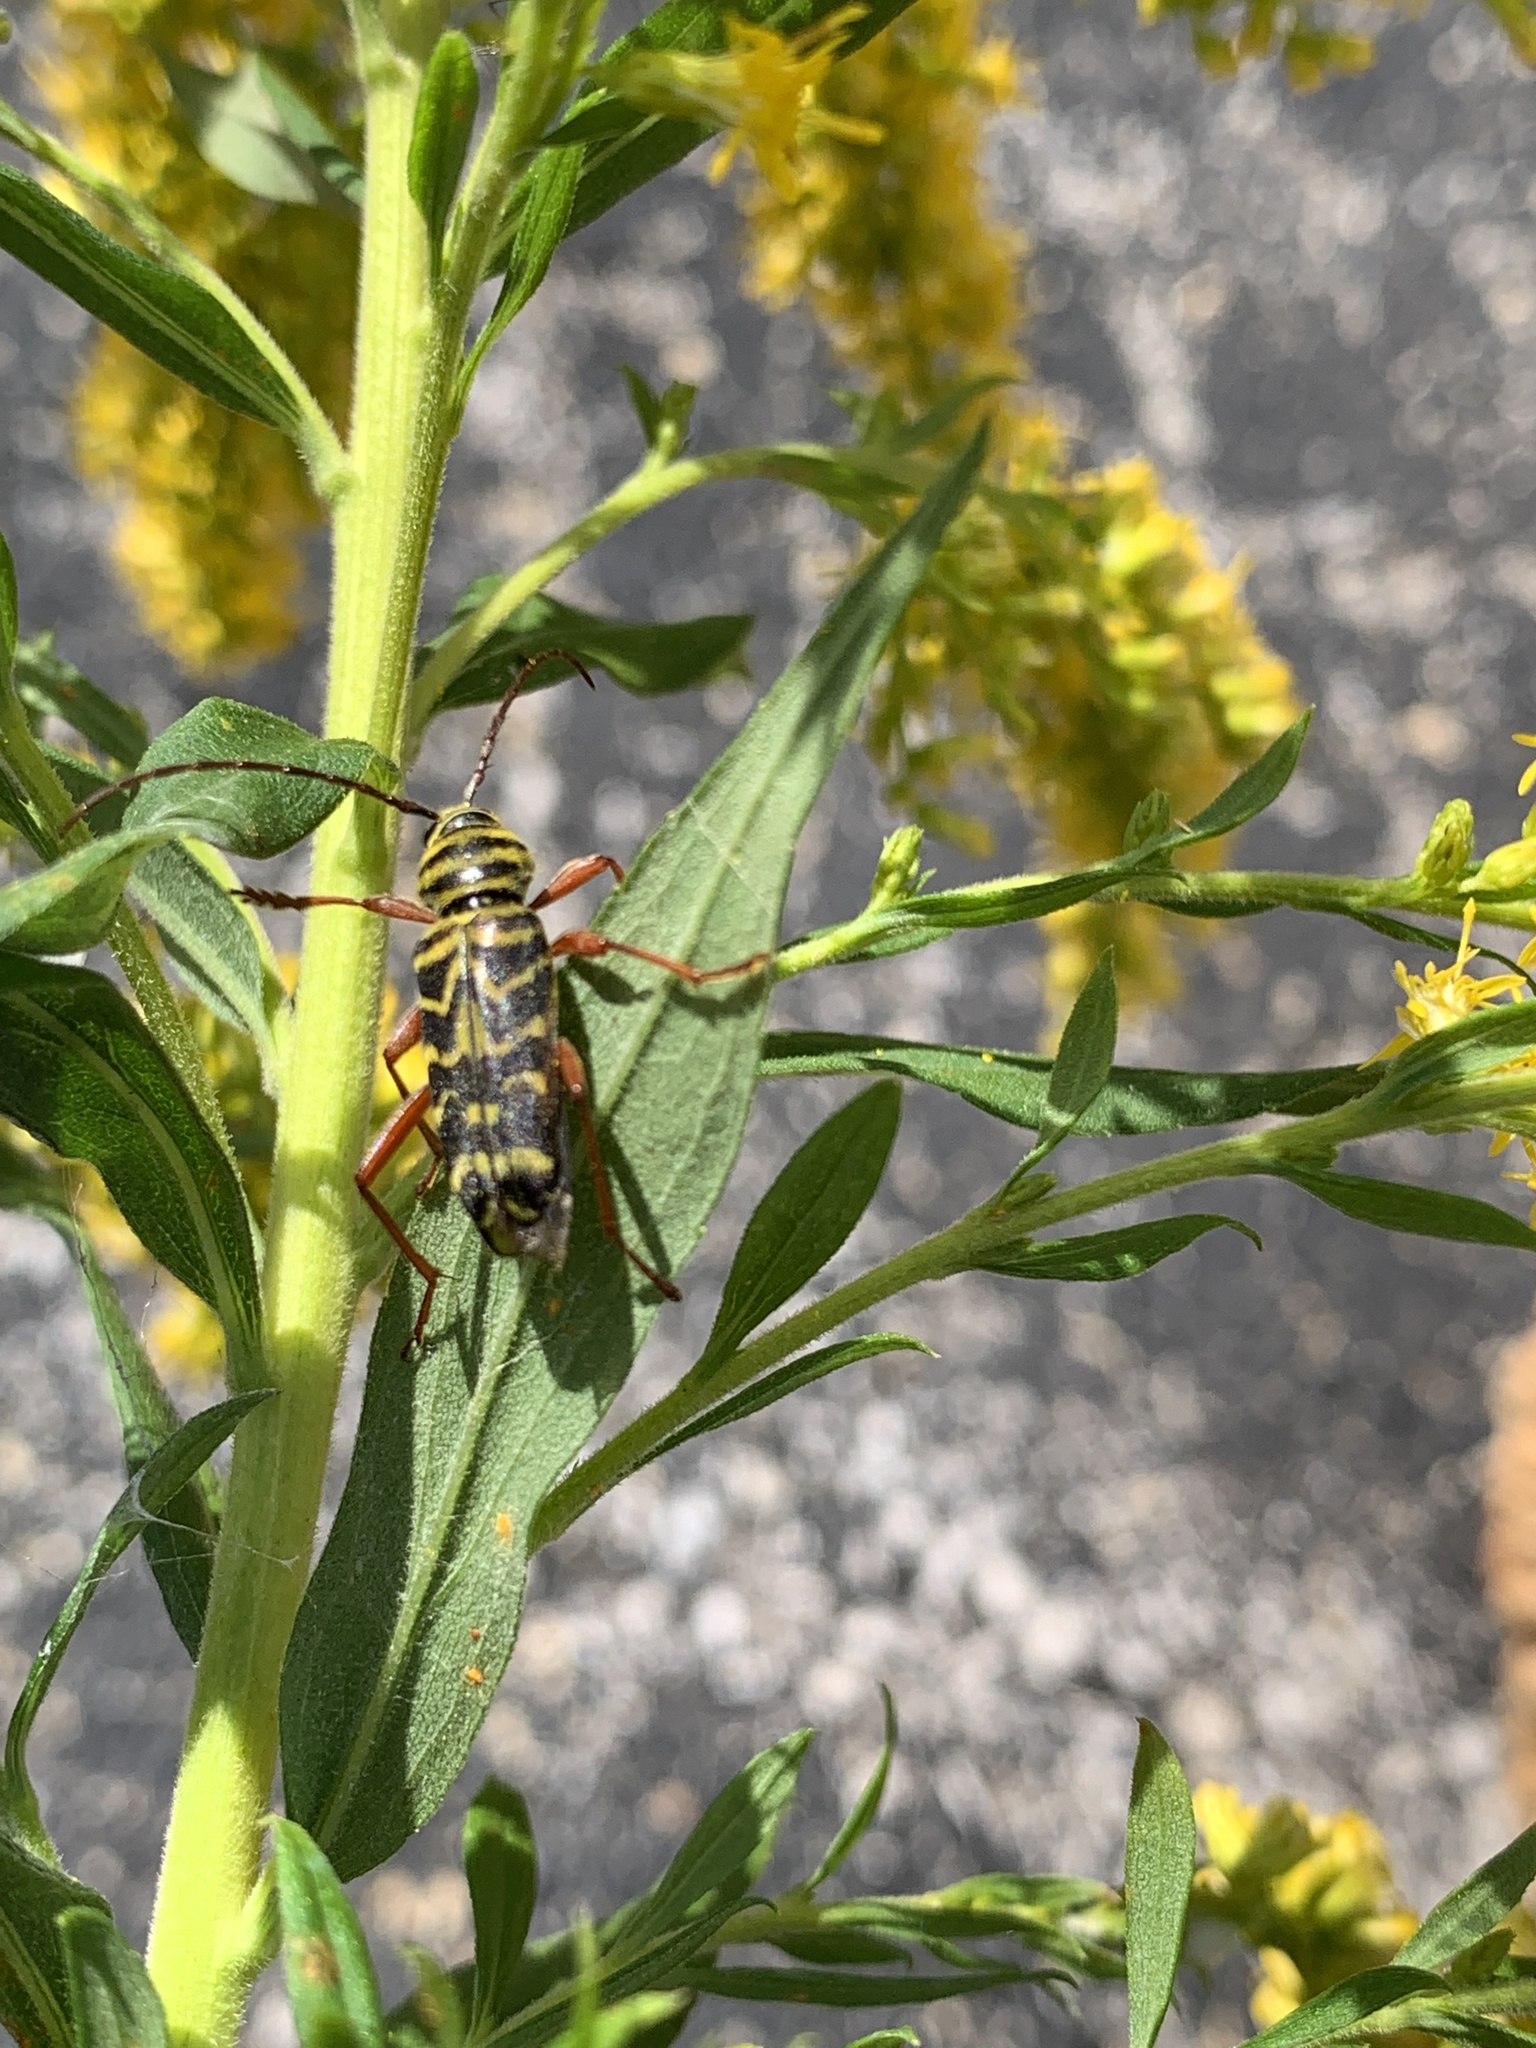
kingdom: Animalia
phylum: Arthropoda
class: Insecta
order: Coleoptera
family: Cerambycidae
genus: Megacyllene
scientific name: Megacyllene robiniae
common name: Locust borer
